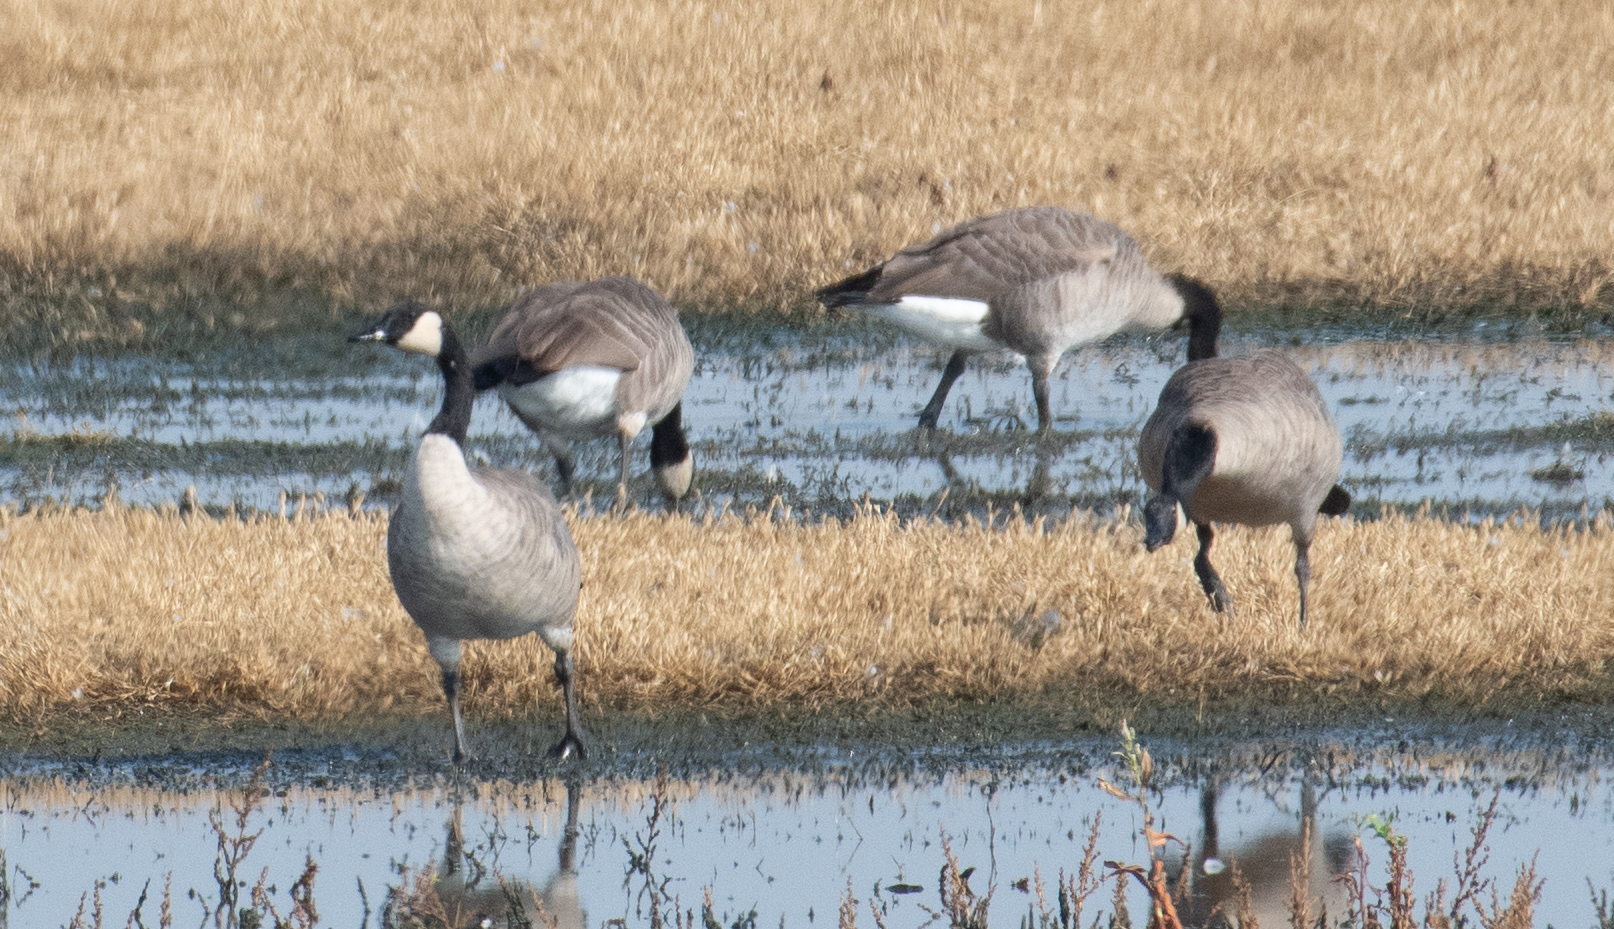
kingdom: Animalia
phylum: Chordata
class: Aves
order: Anseriformes
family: Anatidae
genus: Branta
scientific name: Branta canadensis
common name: Canada goose
